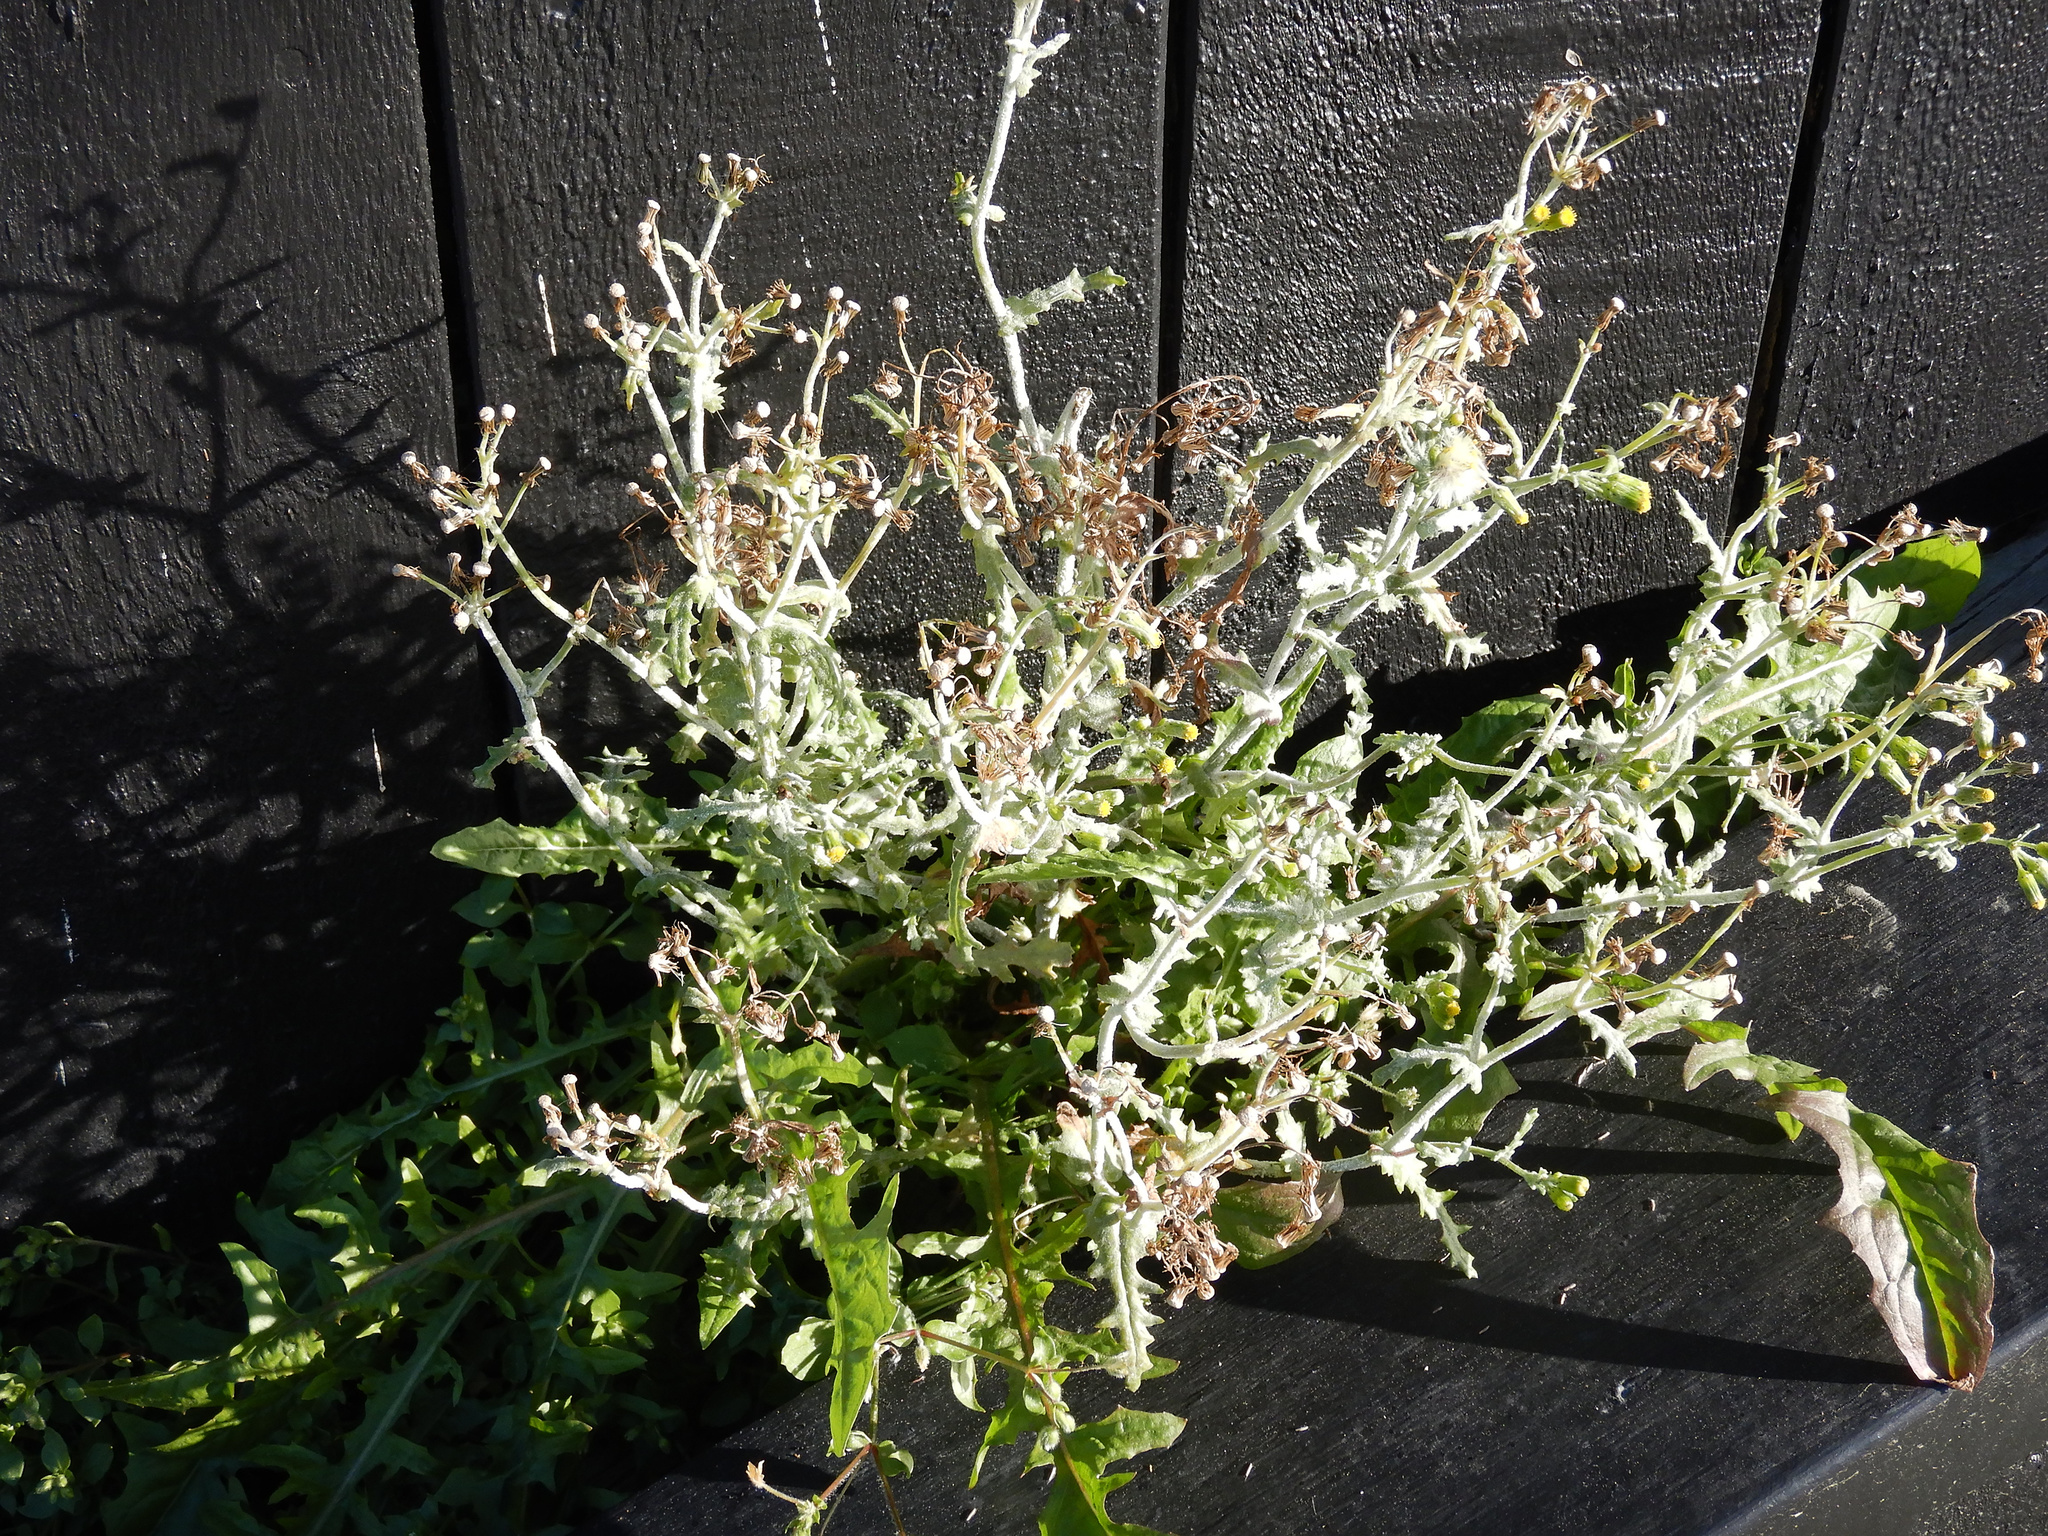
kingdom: Plantae
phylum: Tracheophyta
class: Magnoliopsida
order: Asterales
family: Asteraceae
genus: Senecio
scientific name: Senecio vulgaris
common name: Old-man-in-the-spring
